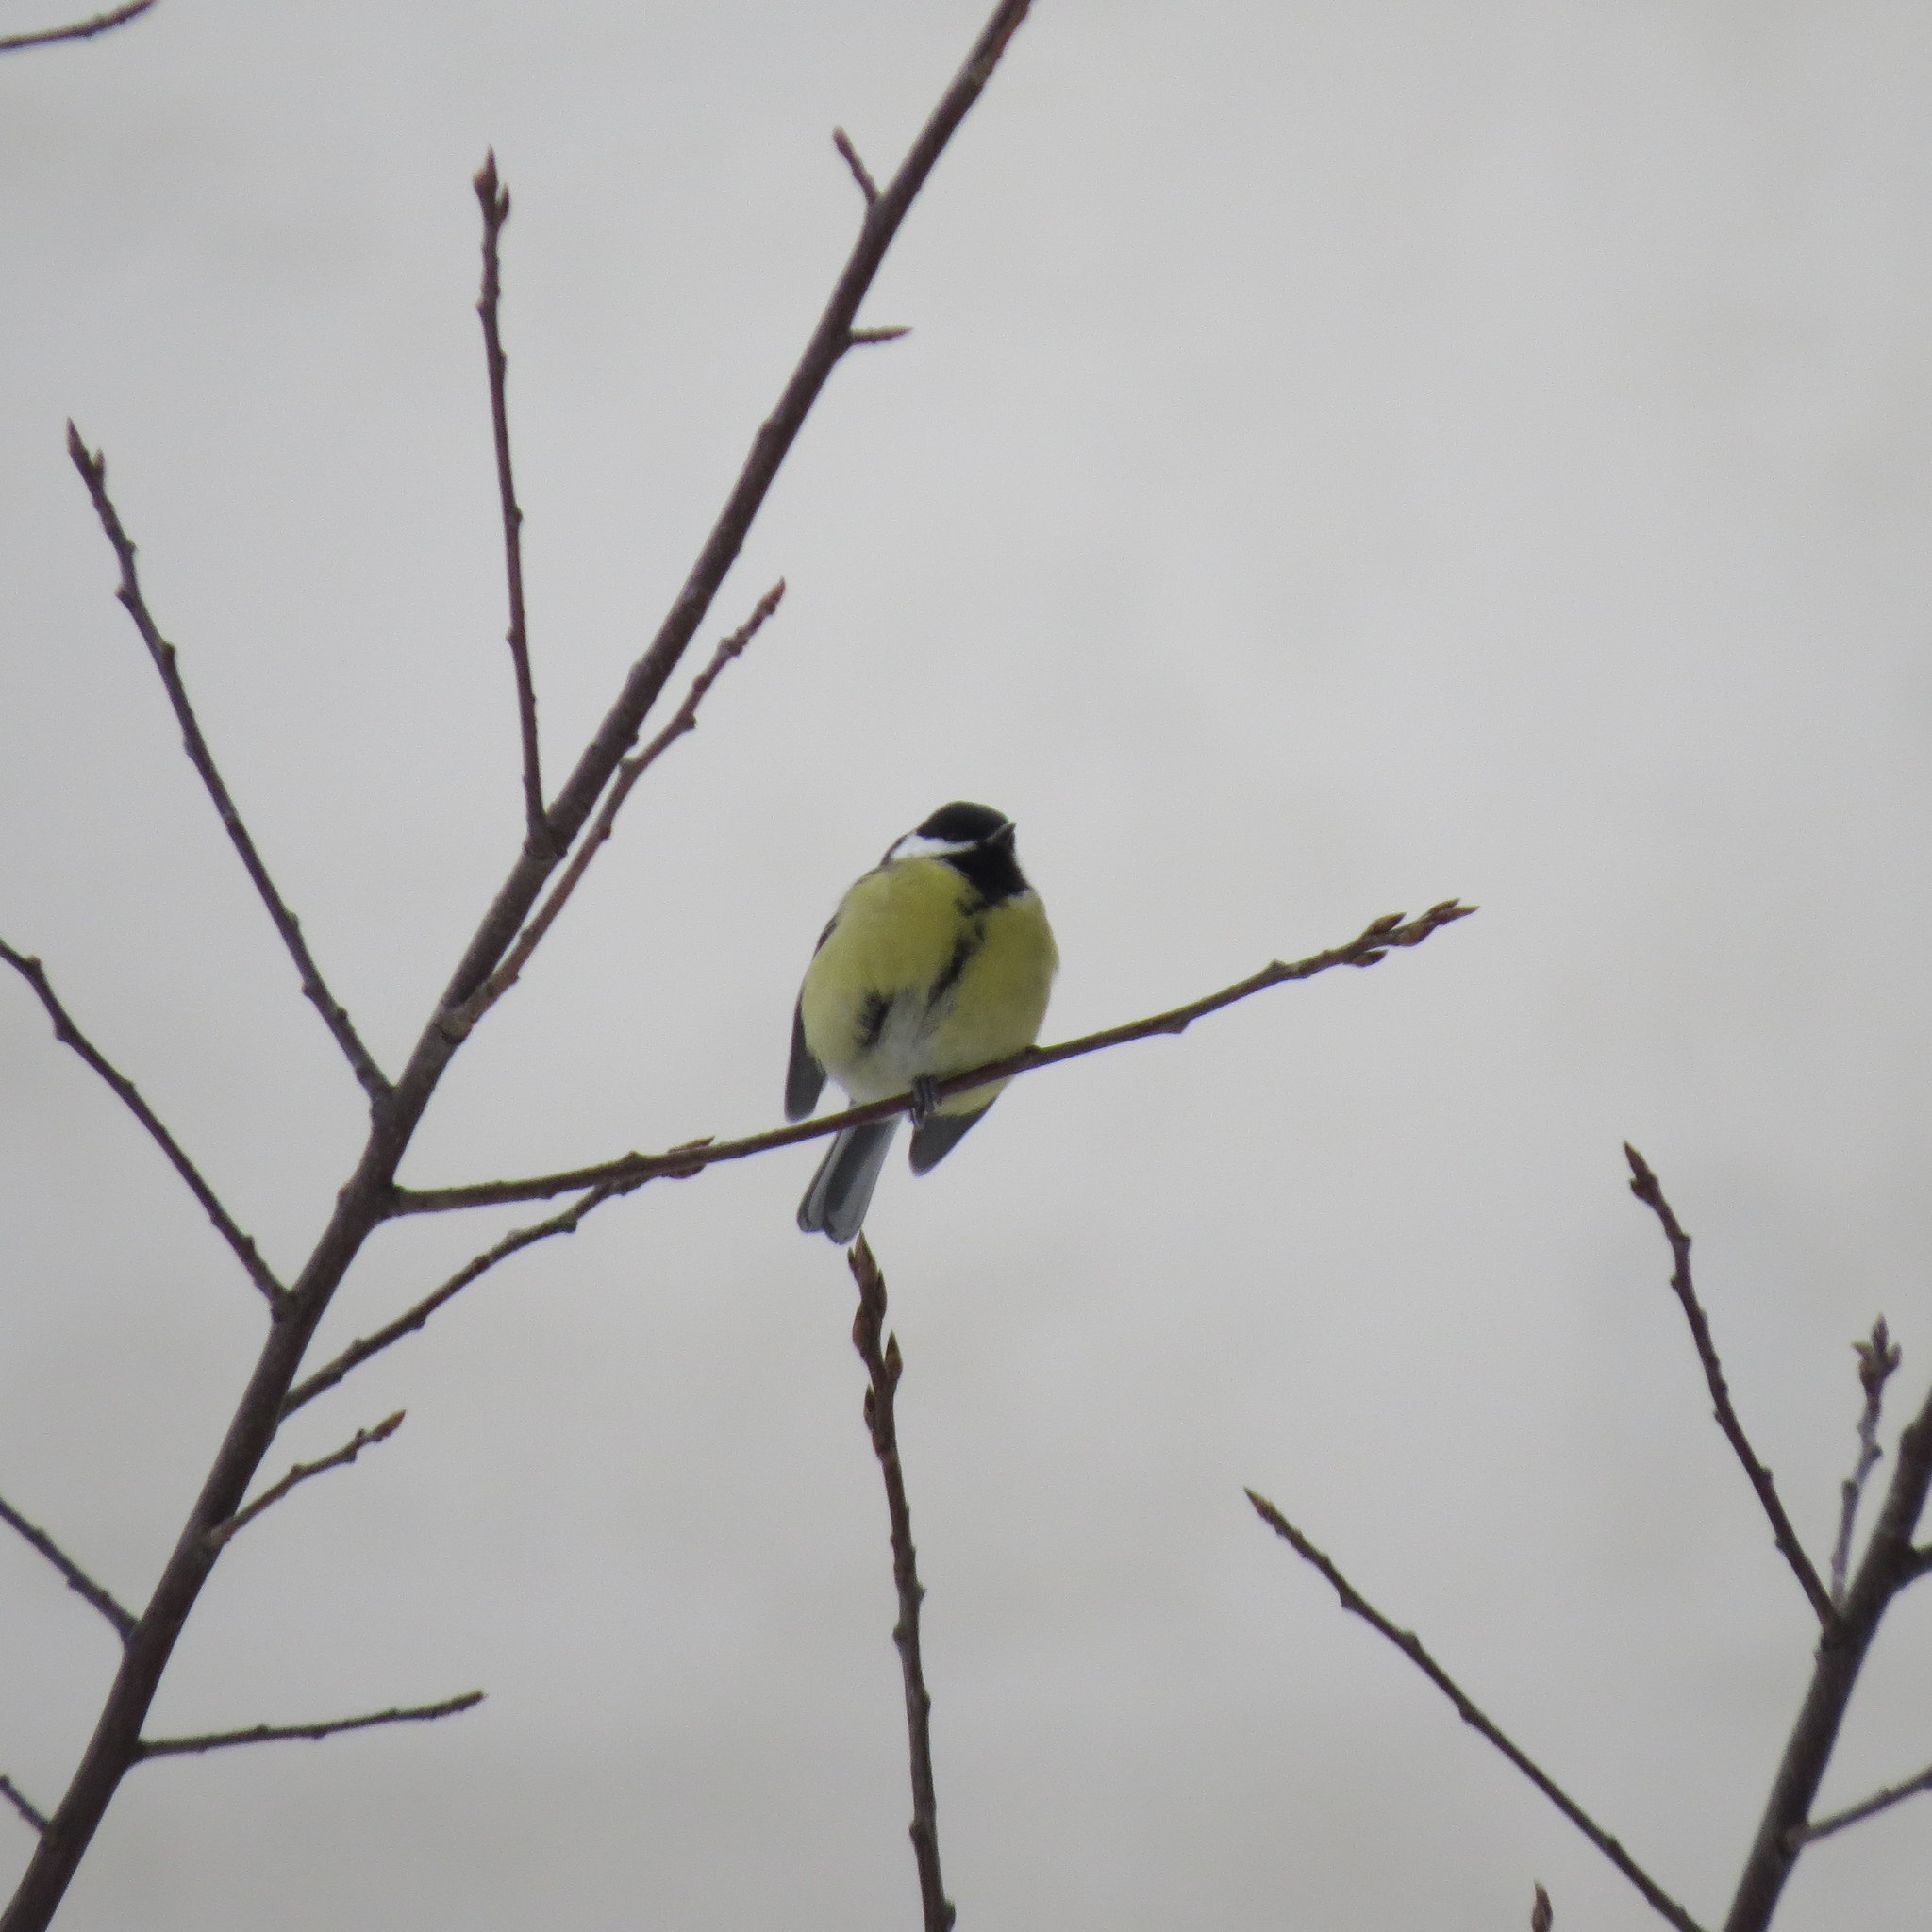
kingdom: Animalia
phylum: Chordata
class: Aves
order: Passeriformes
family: Paridae
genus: Parus
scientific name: Parus major
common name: Great tit
